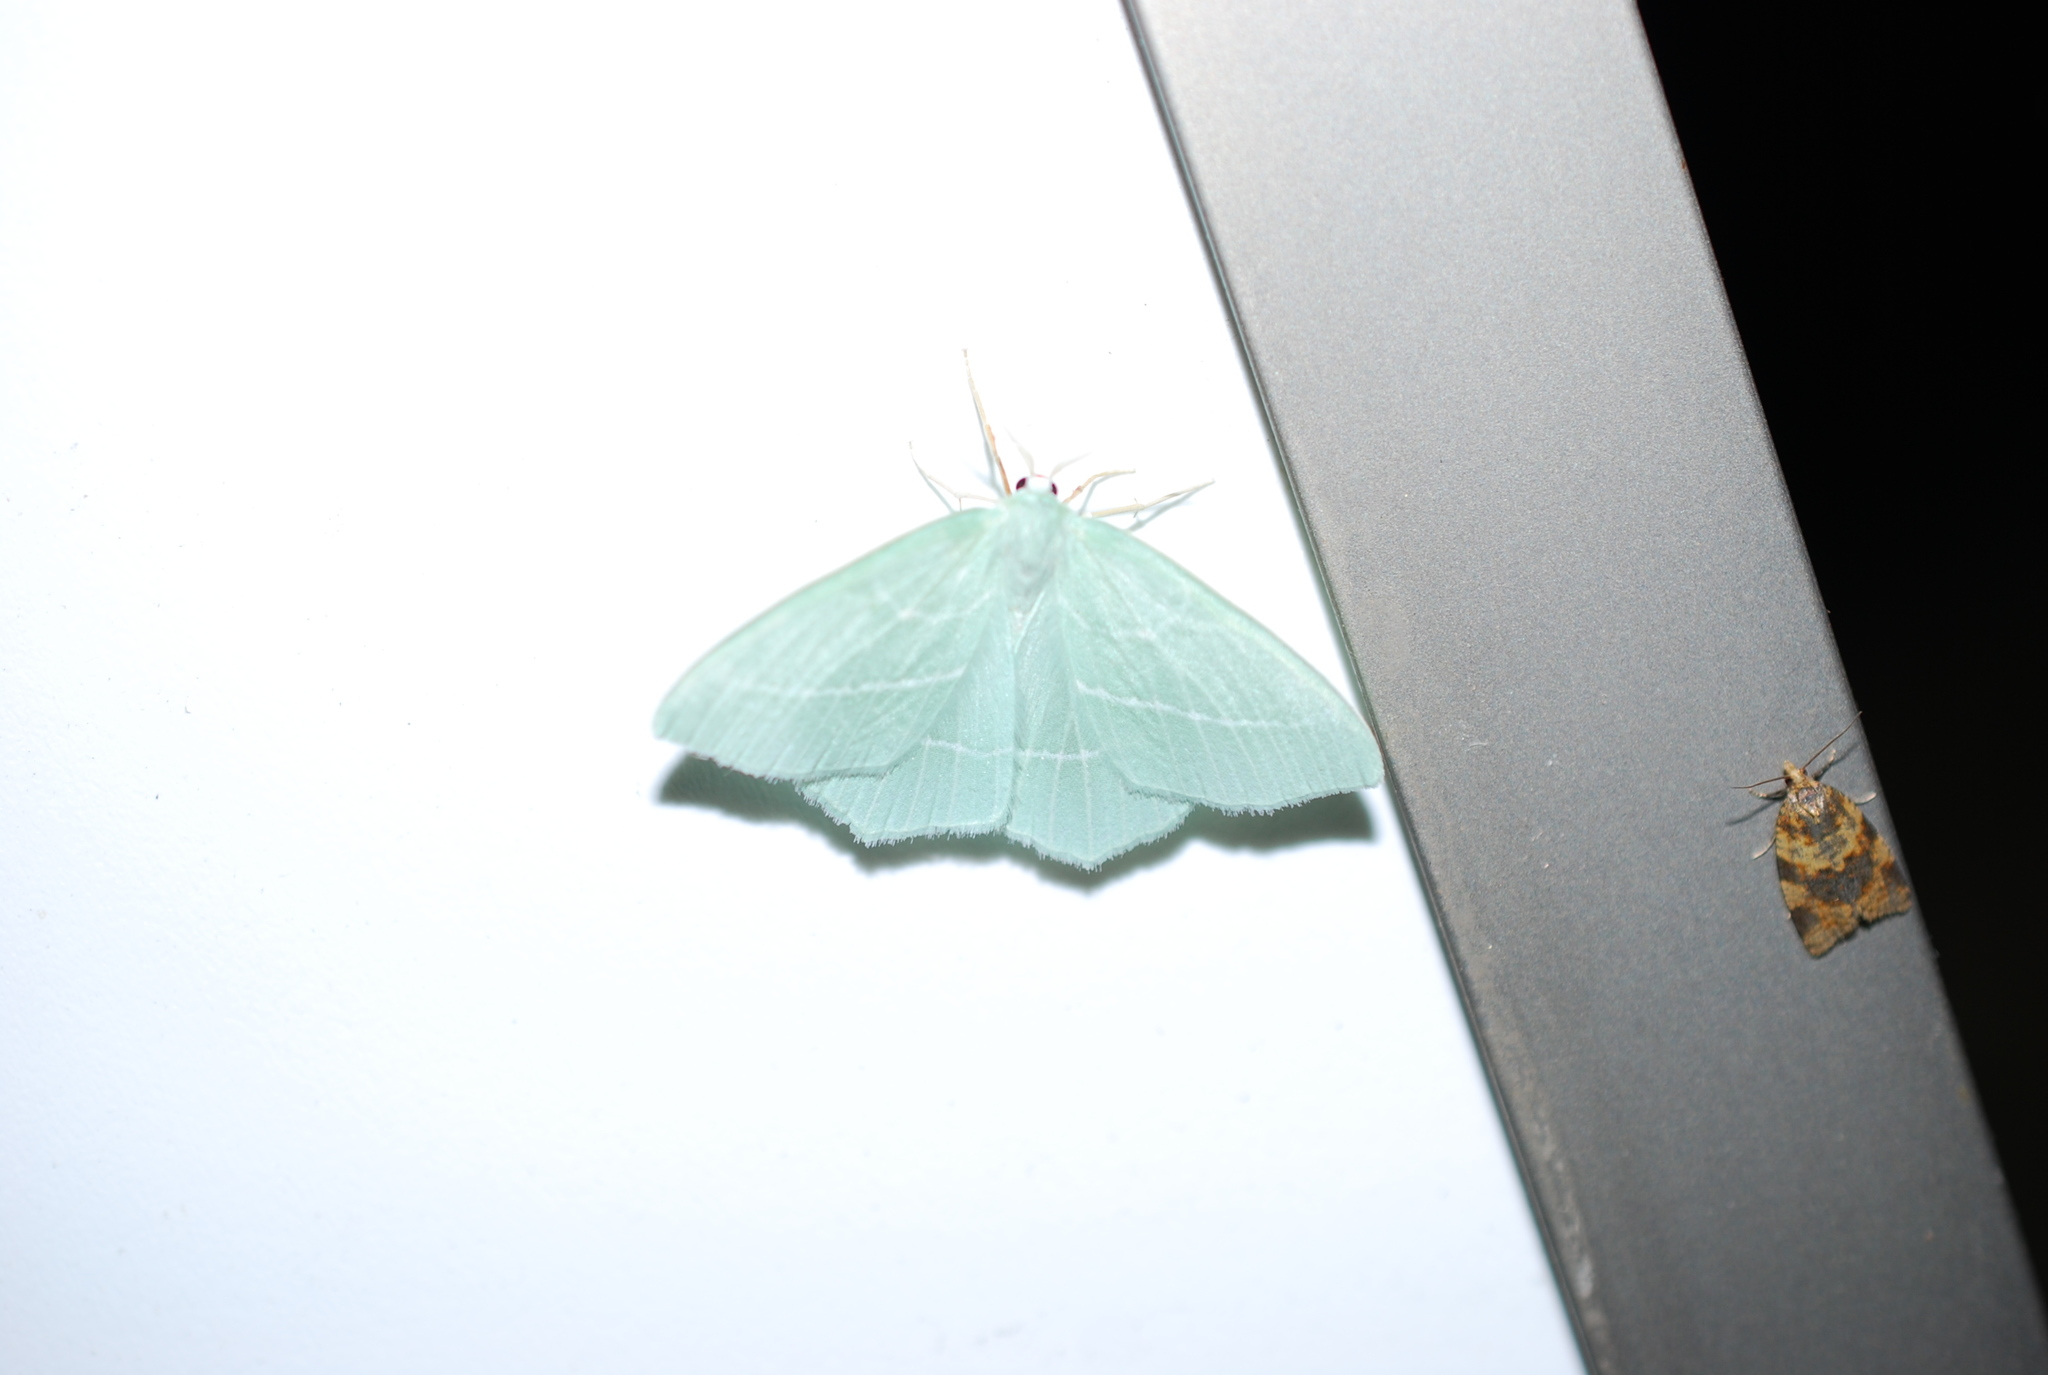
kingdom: Animalia
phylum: Arthropoda
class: Insecta
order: Lepidoptera
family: Geometridae
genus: Hemistola
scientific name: Hemistola chrysoprasaria
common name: Small emerald
